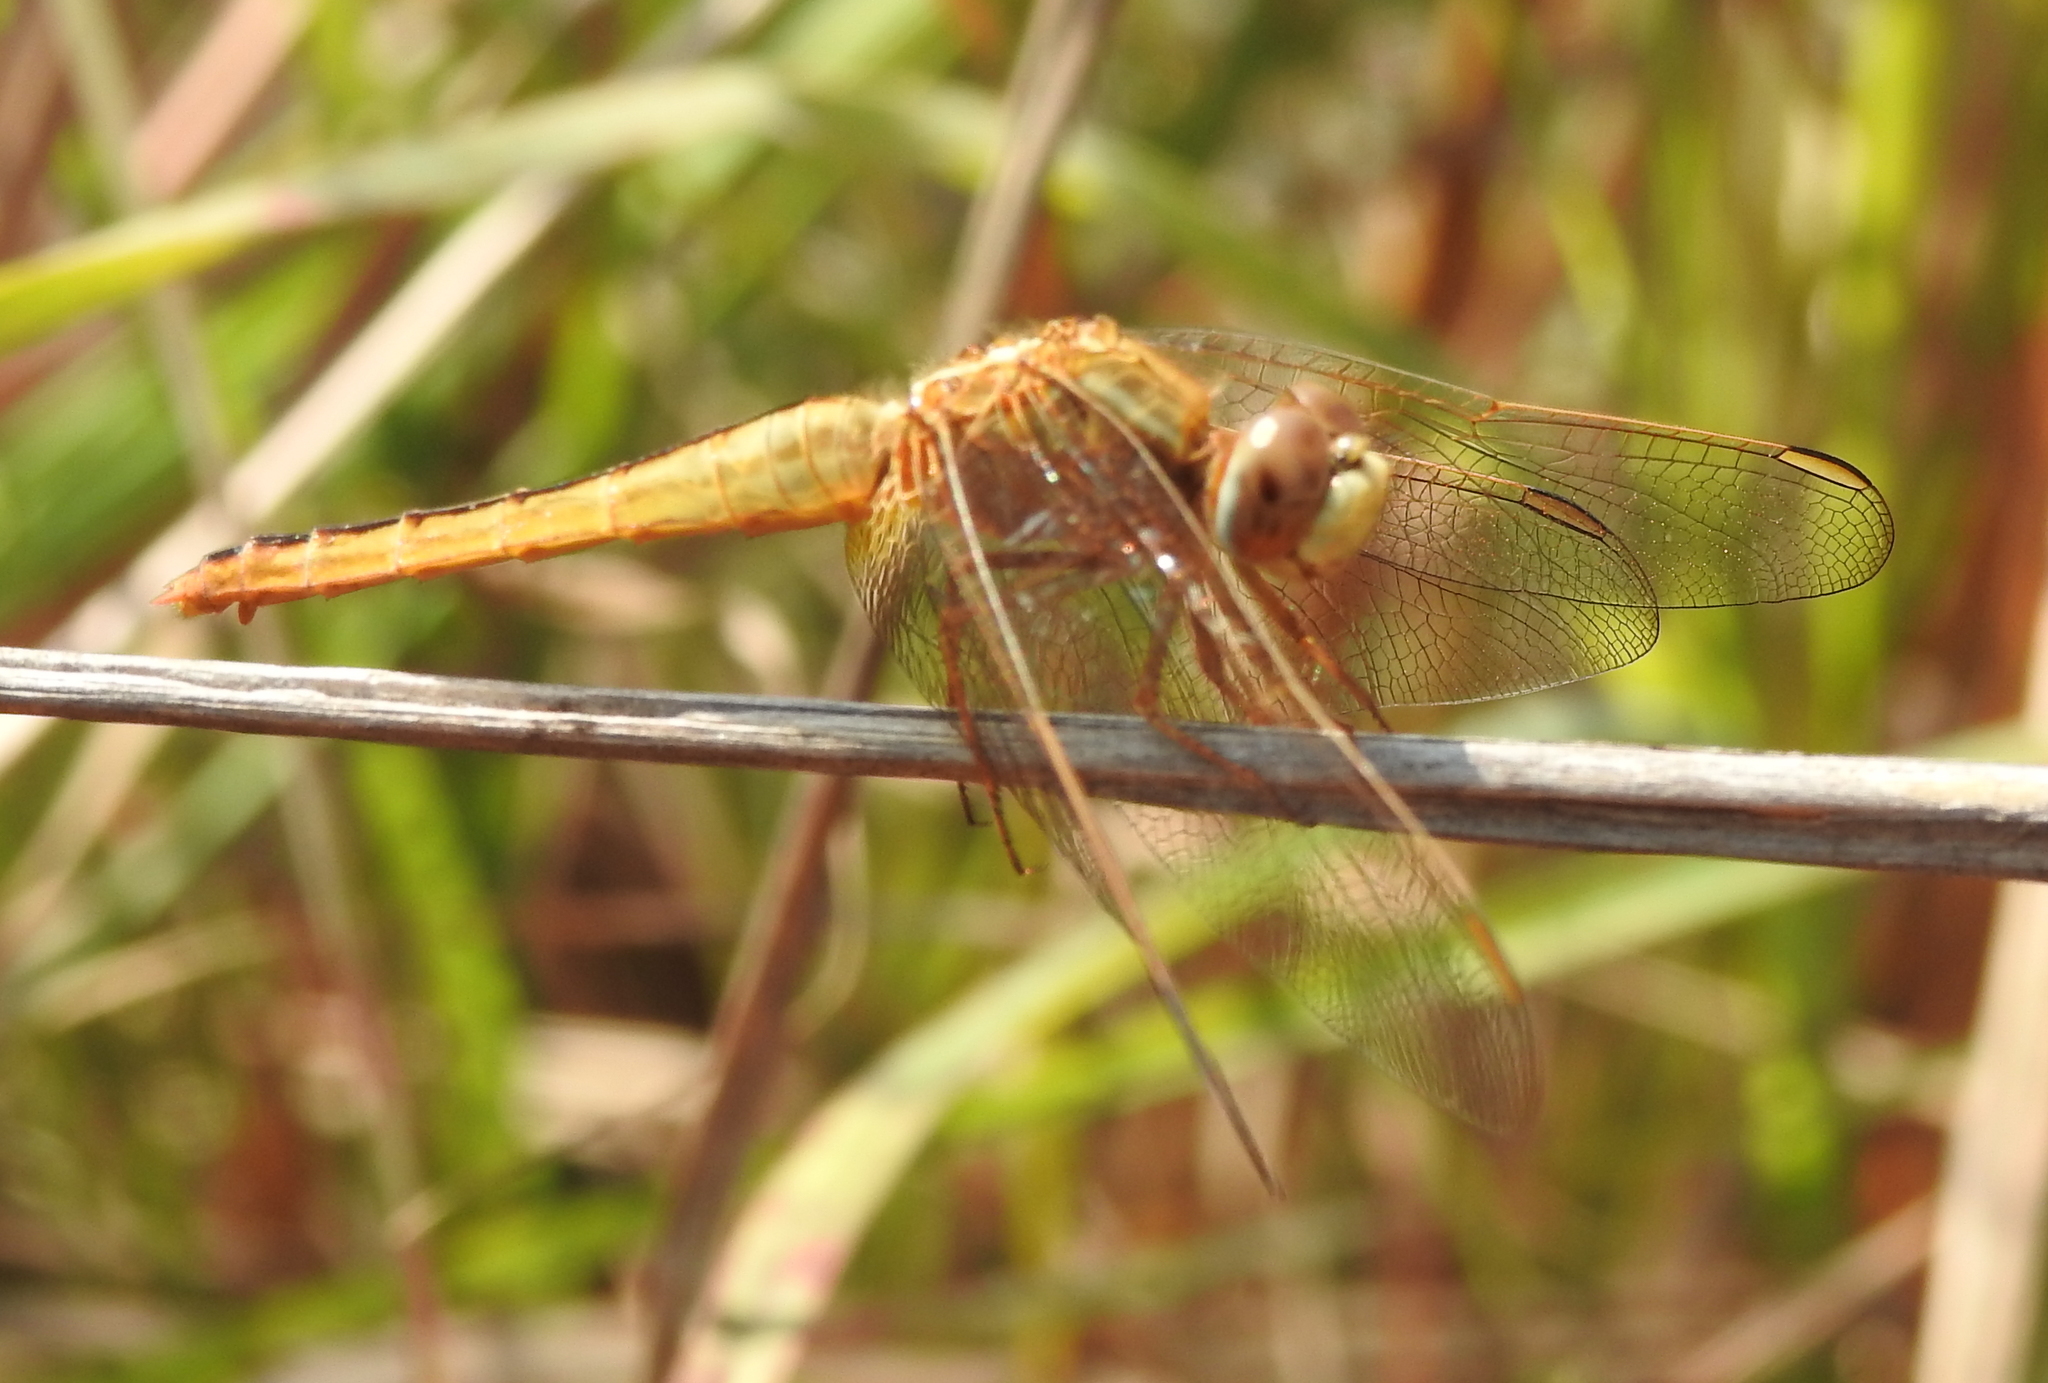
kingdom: Animalia
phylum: Arthropoda
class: Insecta
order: Odonata
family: Libellulidae
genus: Crocothemis
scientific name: Crocothemis servilia
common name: Scarlet skimmer
